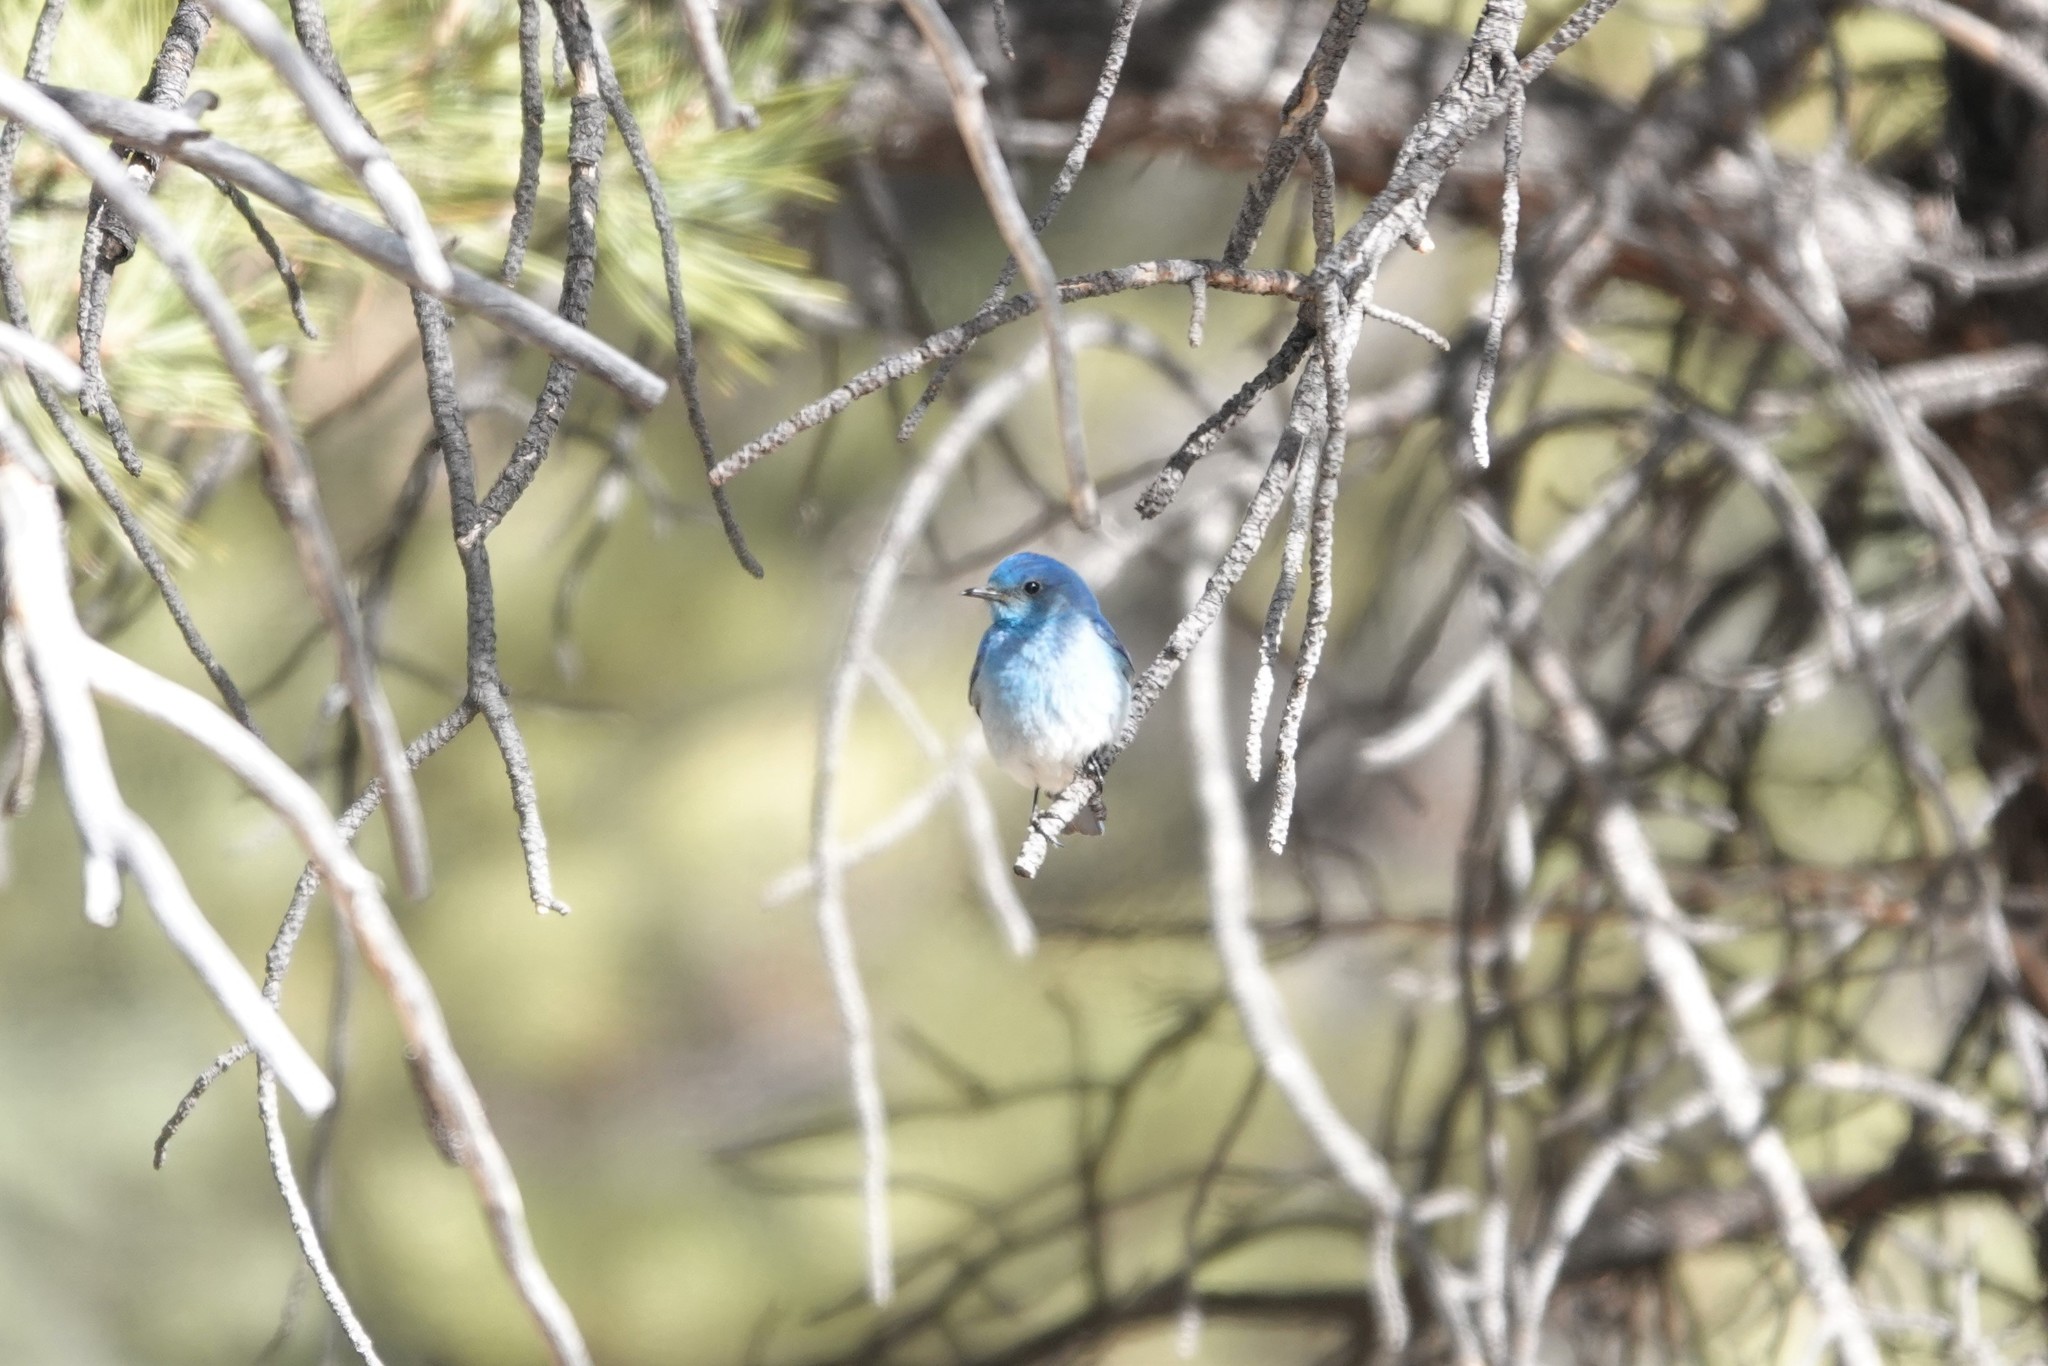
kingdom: Animalia
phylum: Chordata
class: Aves
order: Passeriformes
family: Turdidae
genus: Sialia
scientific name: Sialia currucoides
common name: Mountain bluebird
